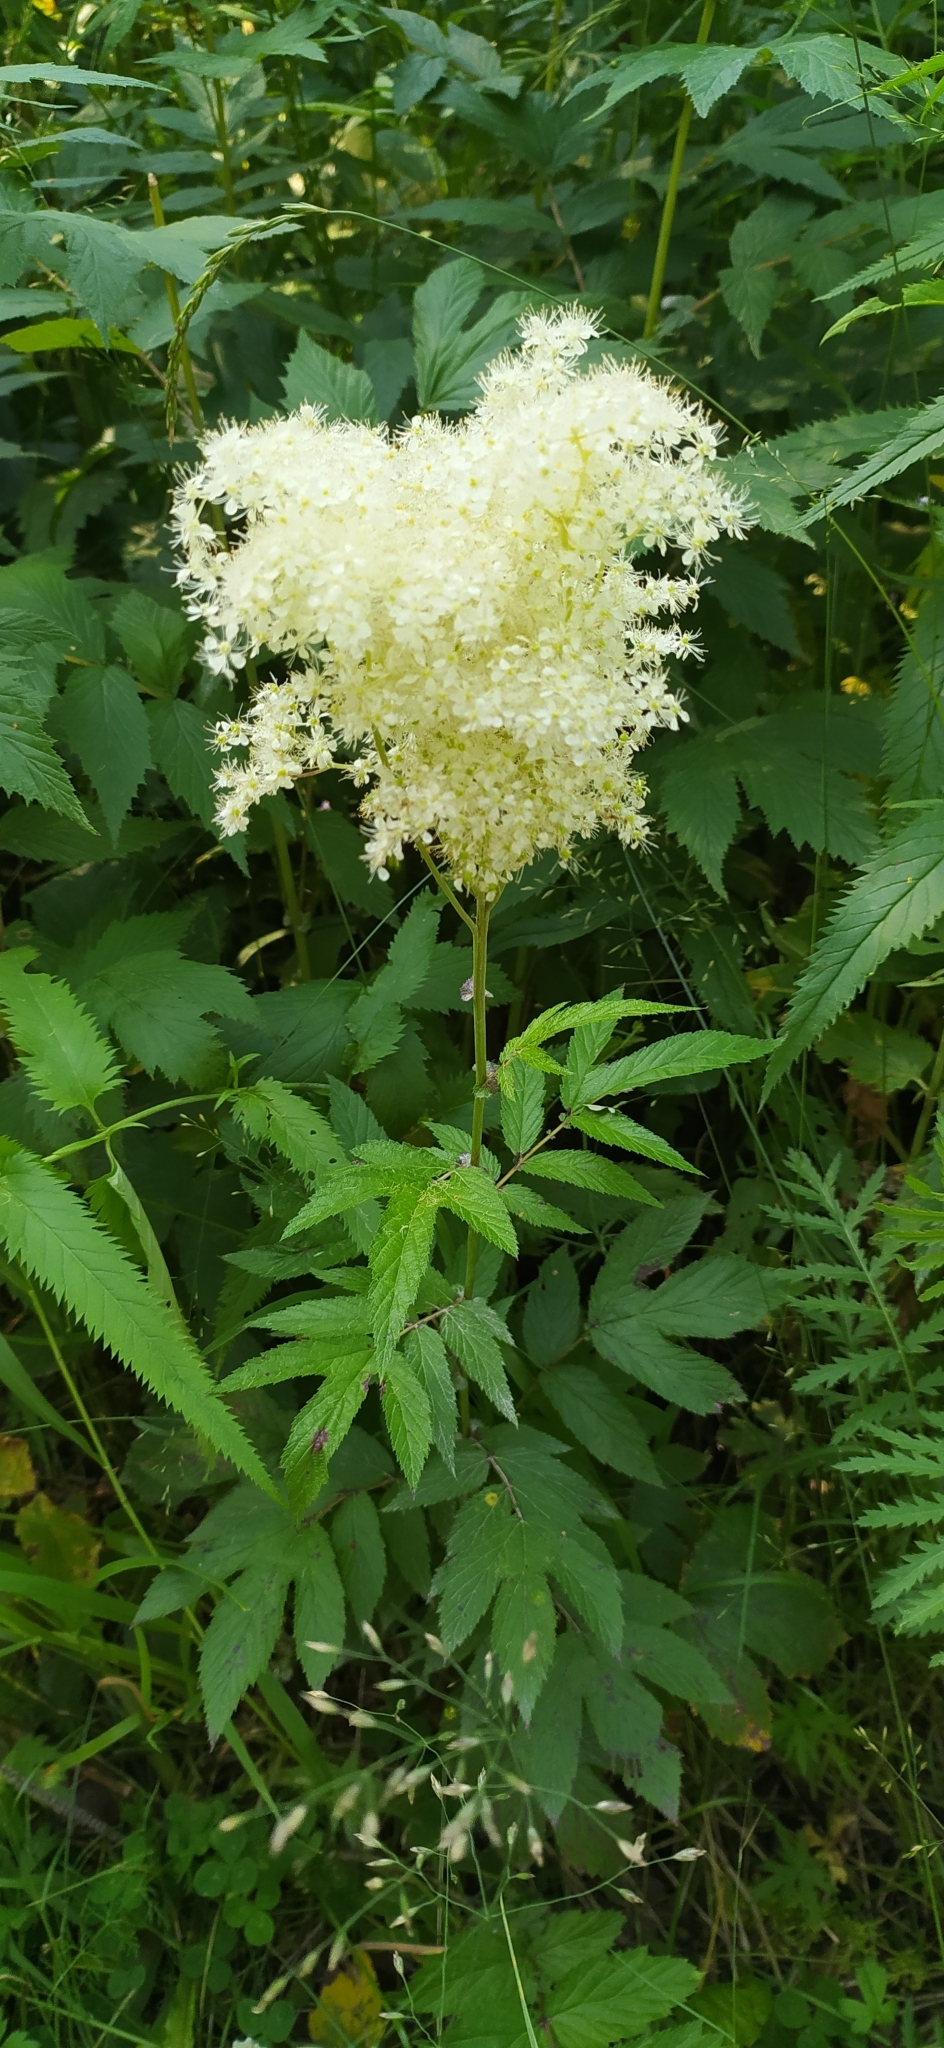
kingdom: Plantae
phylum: Tracheophyta
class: Magnoliopsida
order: Rosales
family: Rosaceae
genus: Filipendula
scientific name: Filipendula ulmaria
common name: Meadowsweet
